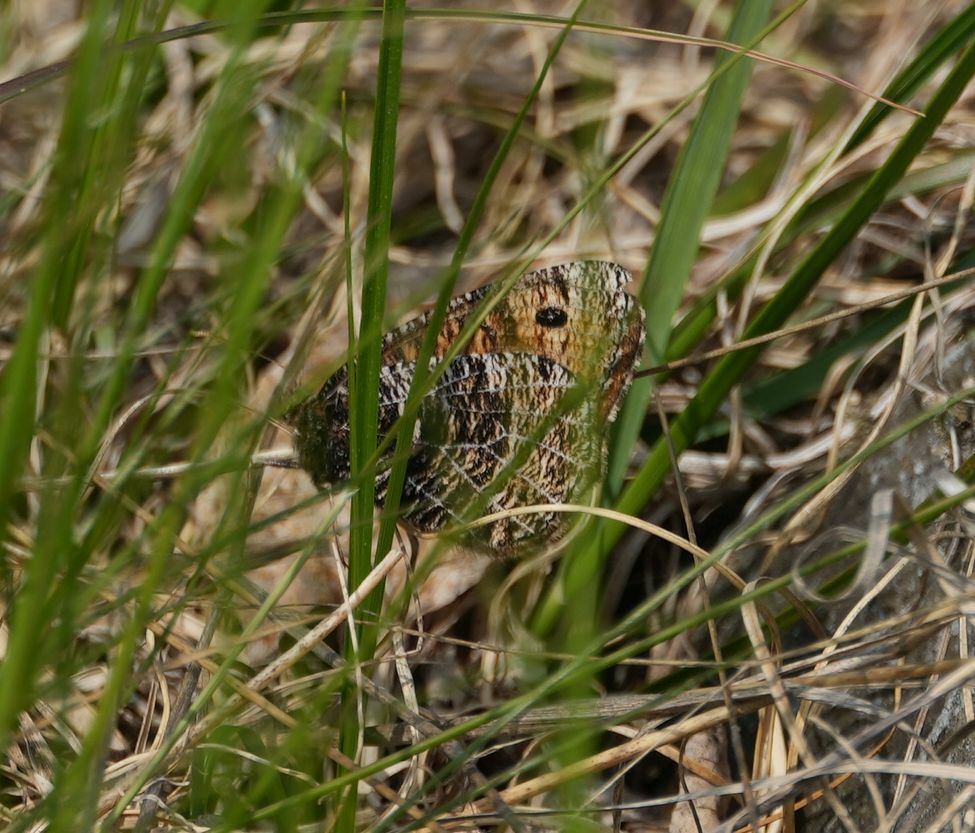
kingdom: Animalia
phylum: Arthropoda
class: Insecta
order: Lepidoptera
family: Nymphalidae
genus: Oeneis
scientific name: Oeneis chryxus
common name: Chryxus arctic
